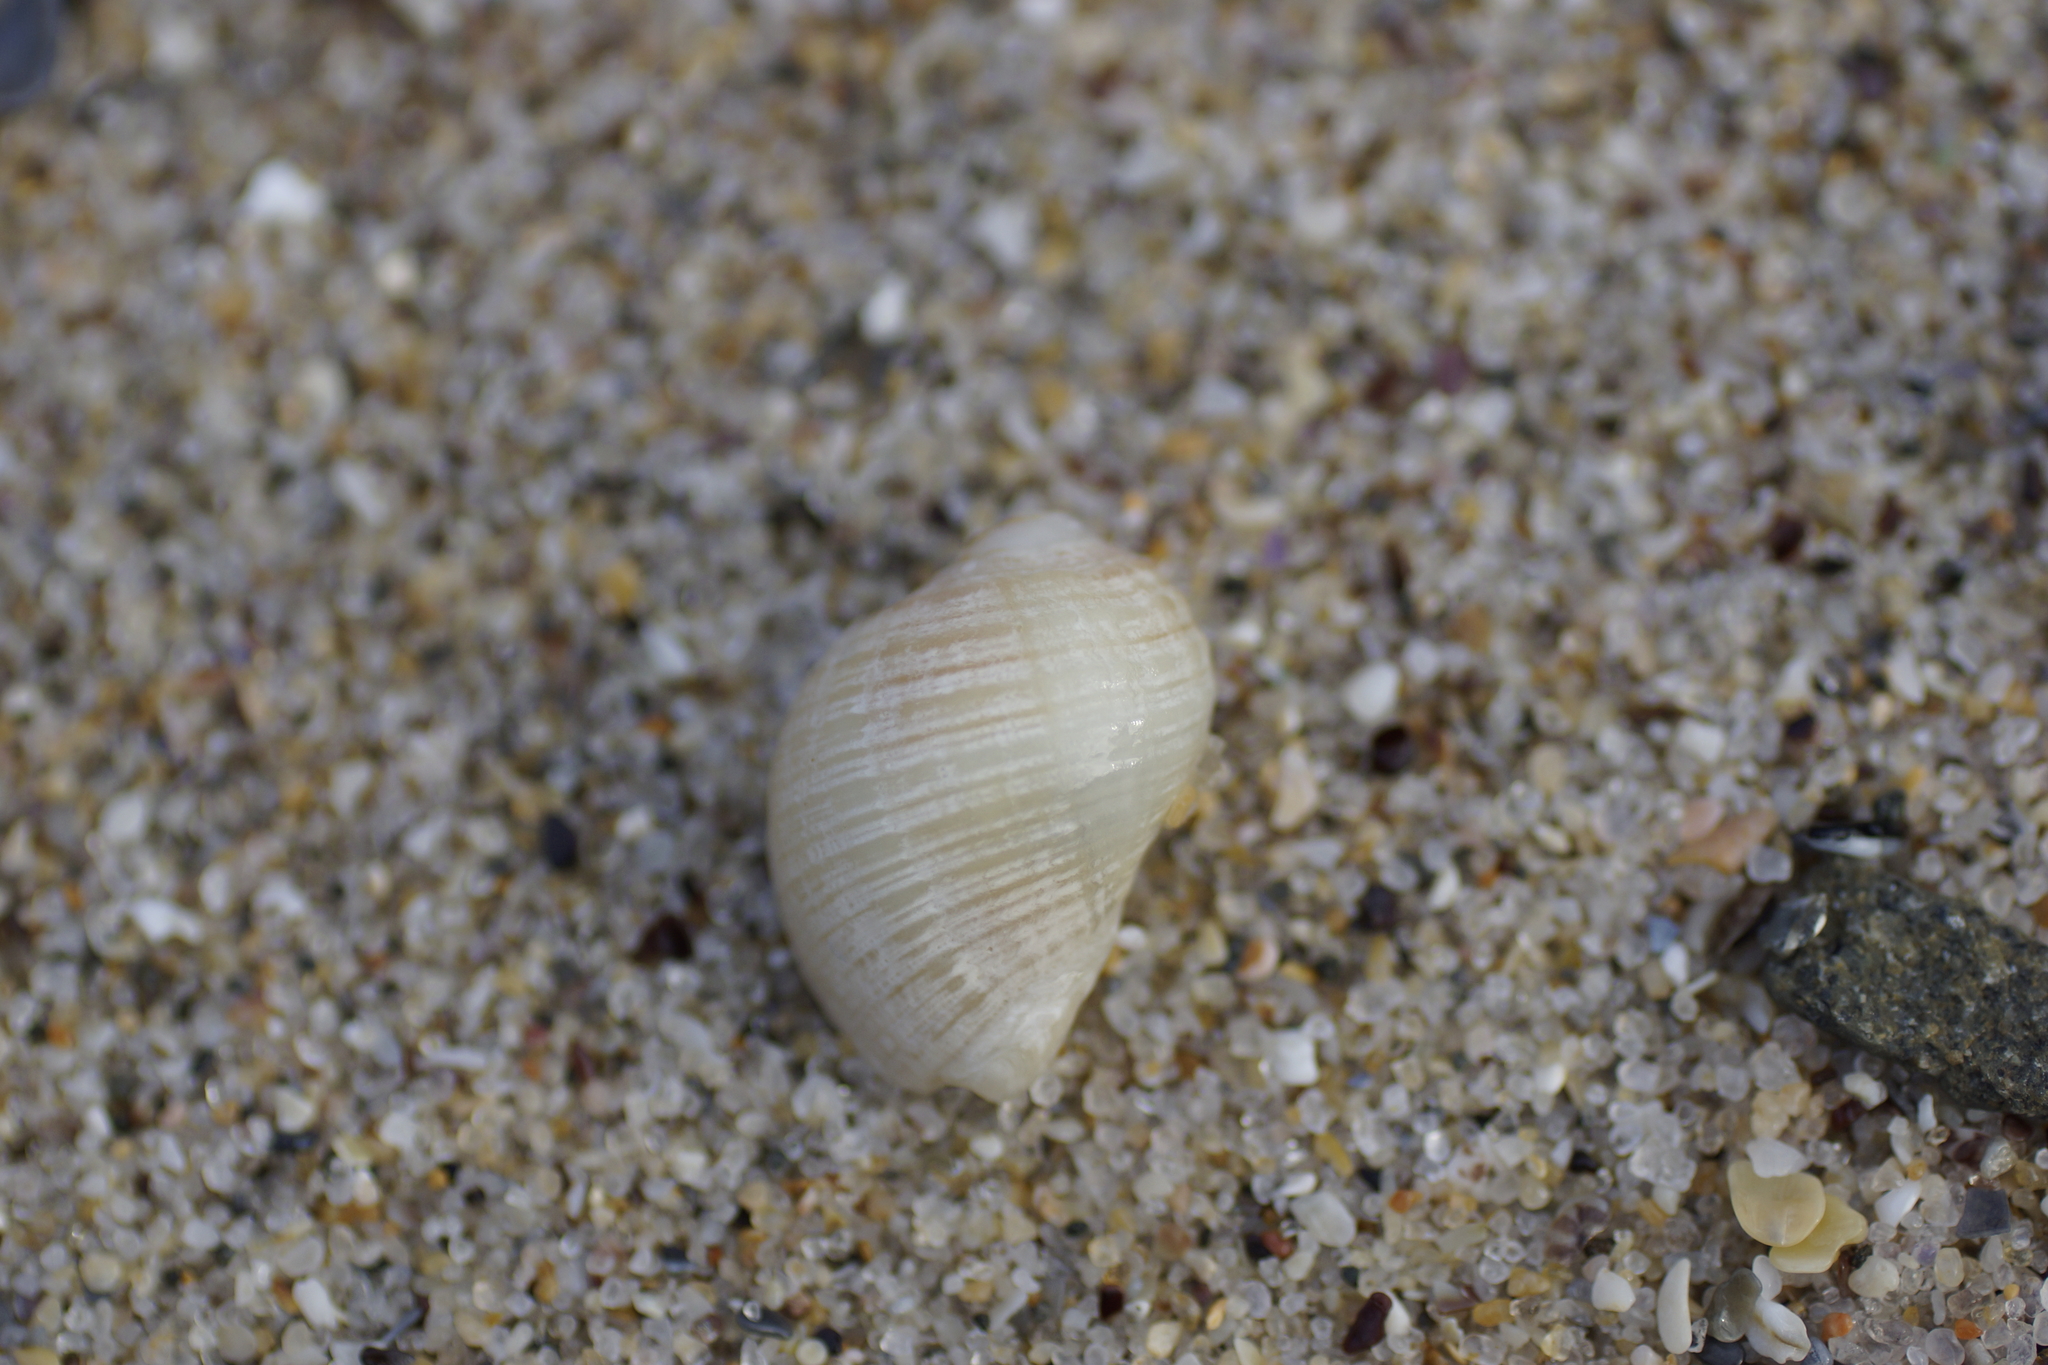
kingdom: Animalia
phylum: Mollusca
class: Gastropoda
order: Neogastropoda
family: Muricidae
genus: Dicathais
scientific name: Dicathais orbita
